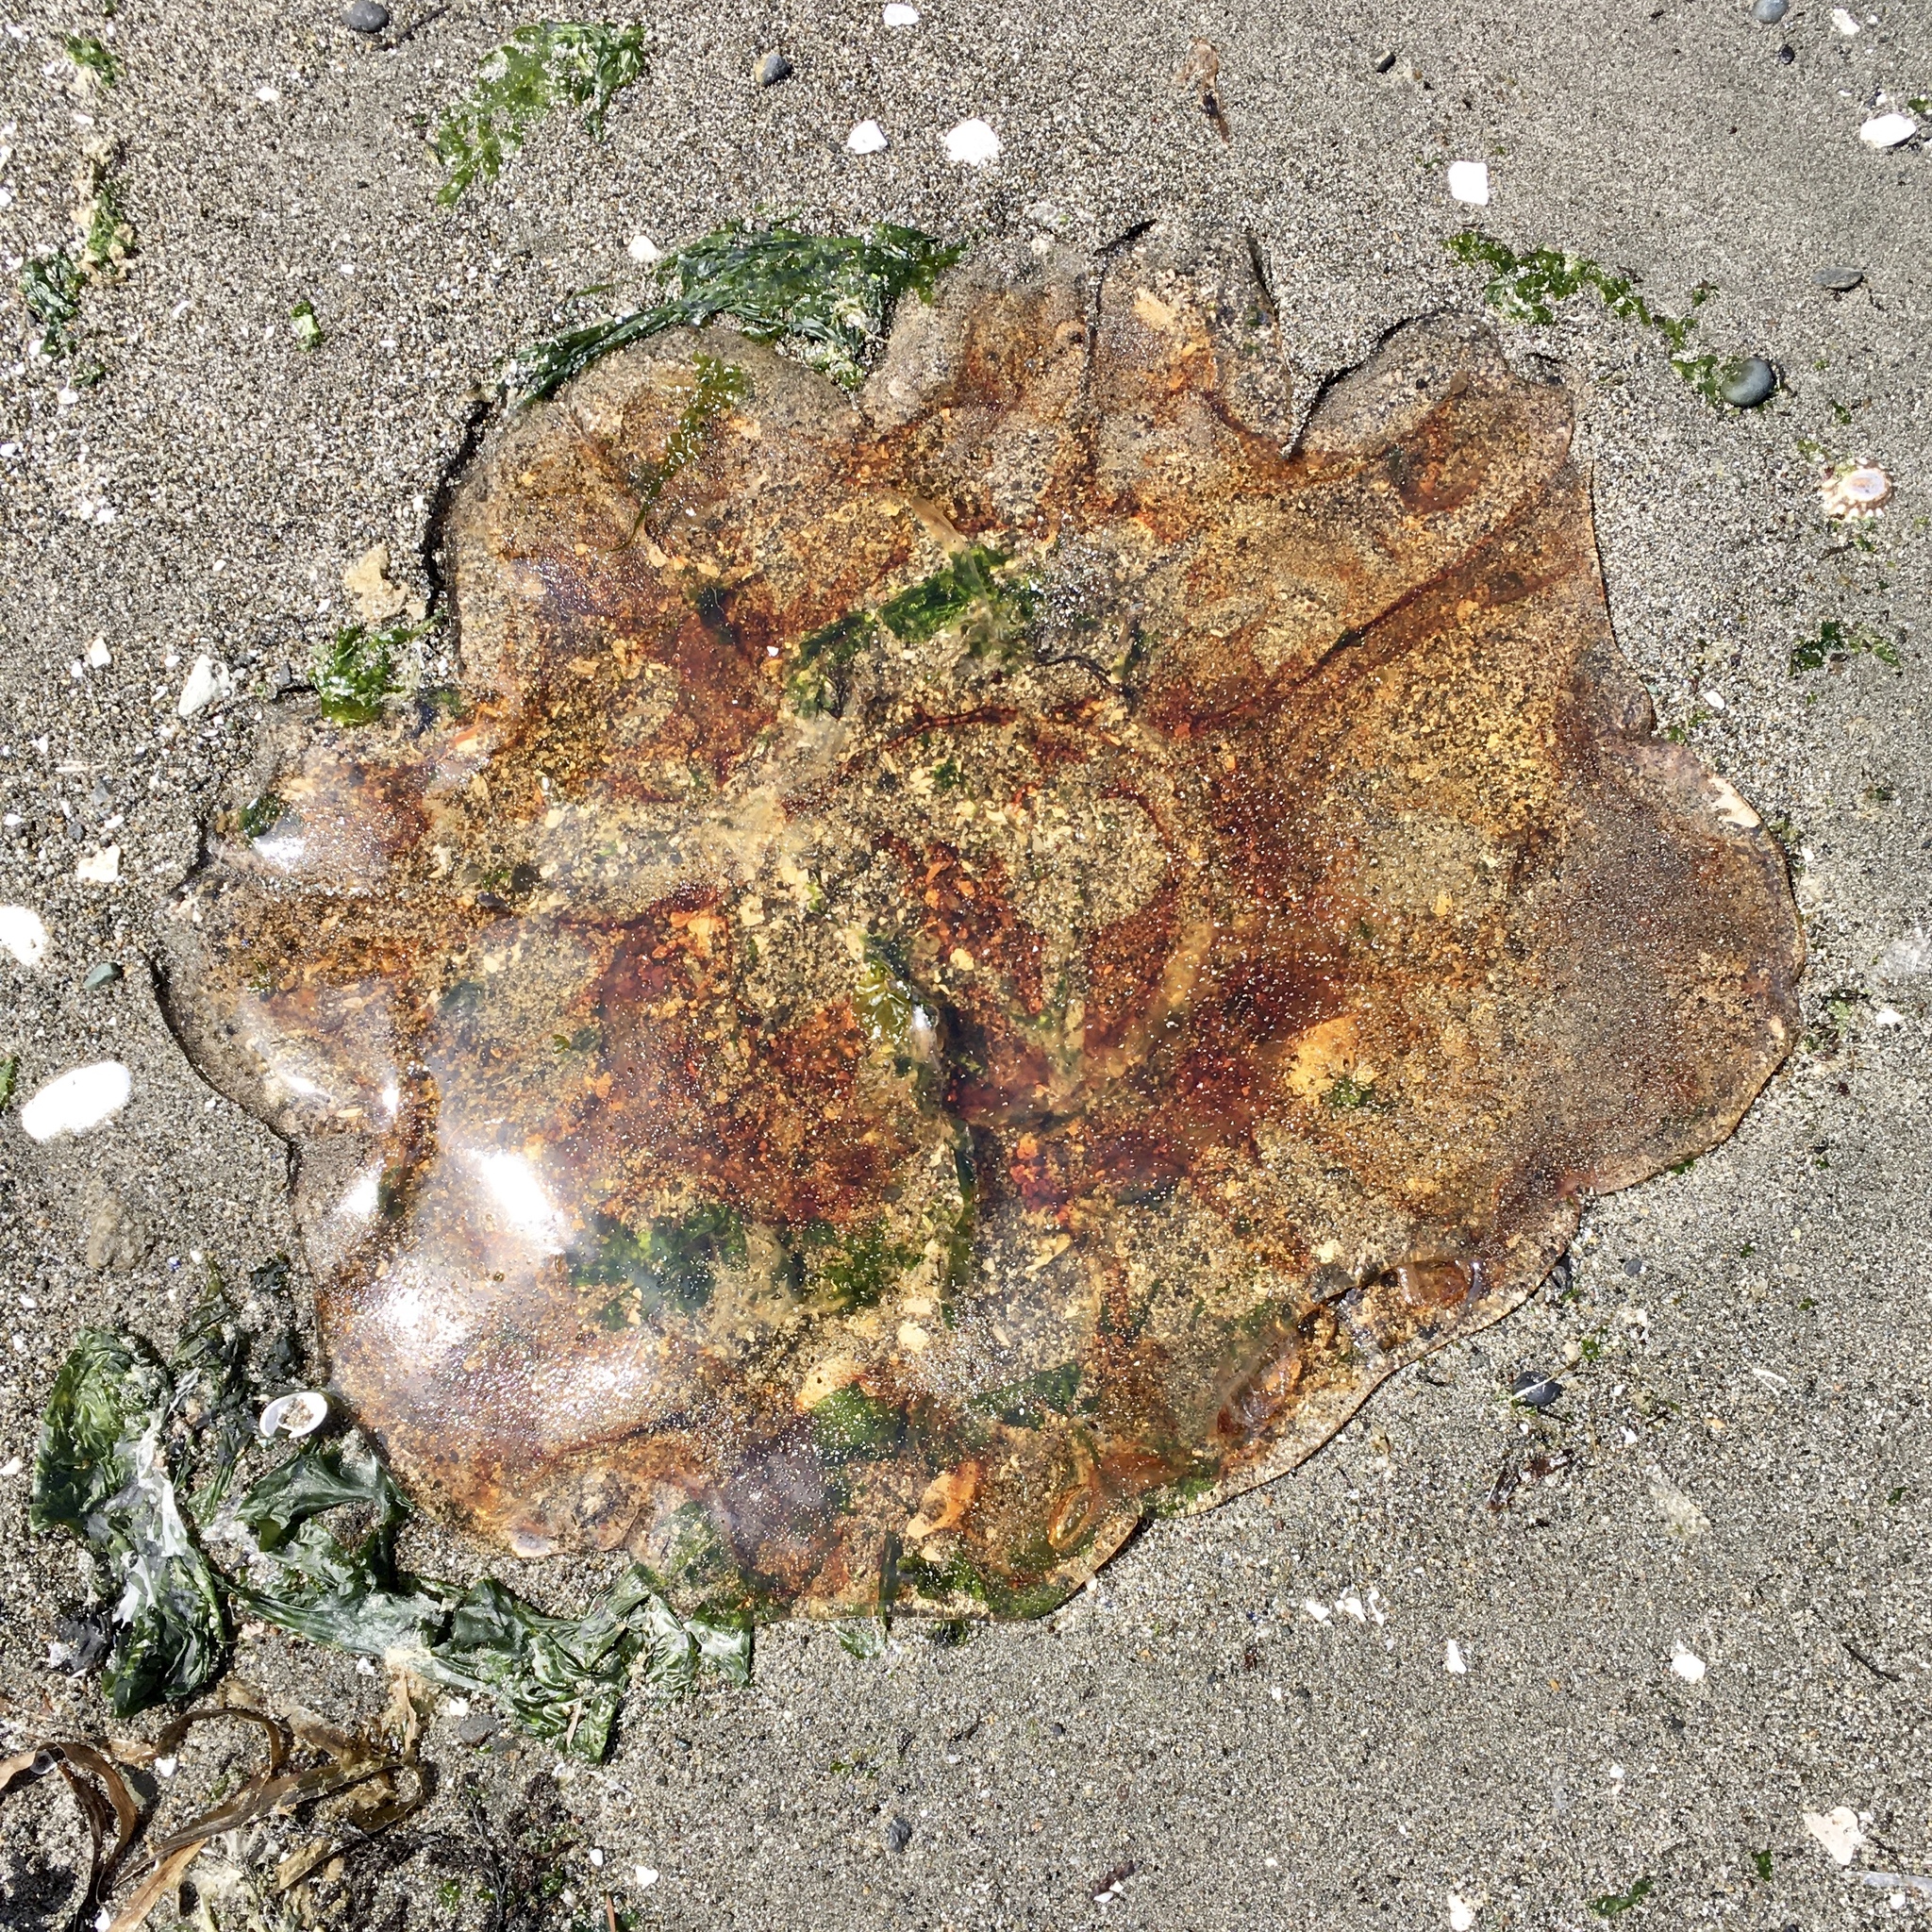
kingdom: Animalia
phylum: Cnidaria
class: Scyphozoa
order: Semaeostomeae
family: Cyaneidae
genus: Cyanea
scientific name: Cyanea ferruginea
